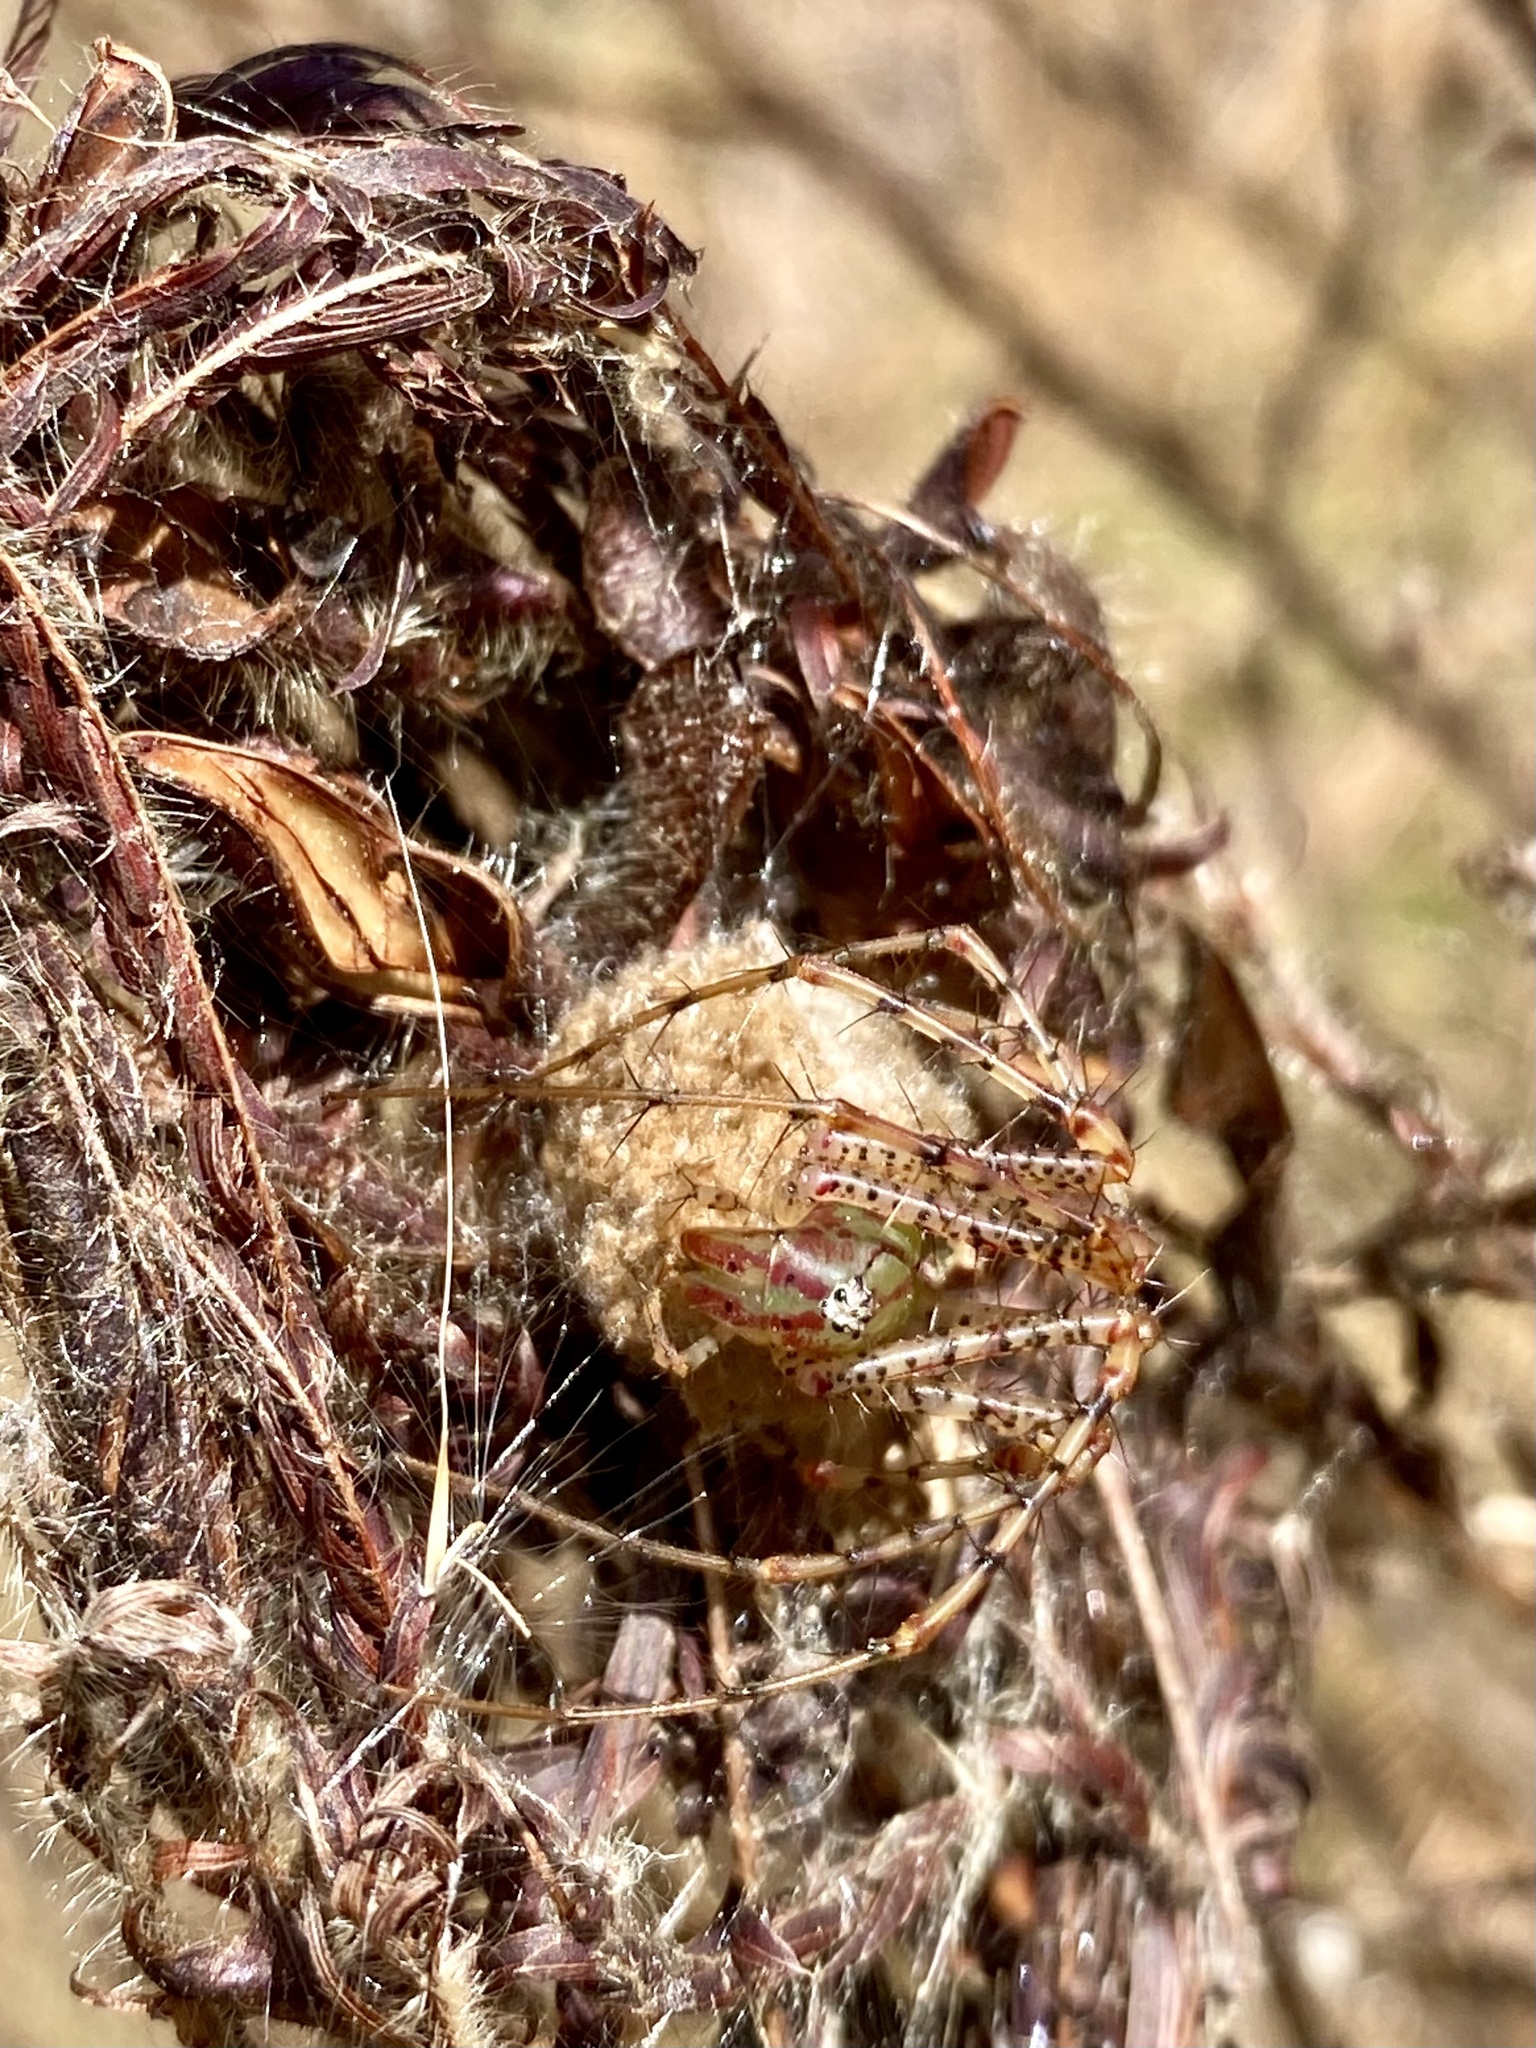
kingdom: Animalia
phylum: Arthropoda
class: Arachnida
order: Araneae
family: Oxyopidae
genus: Peucetia
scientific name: Peucetia viridans
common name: Lynx spiders
